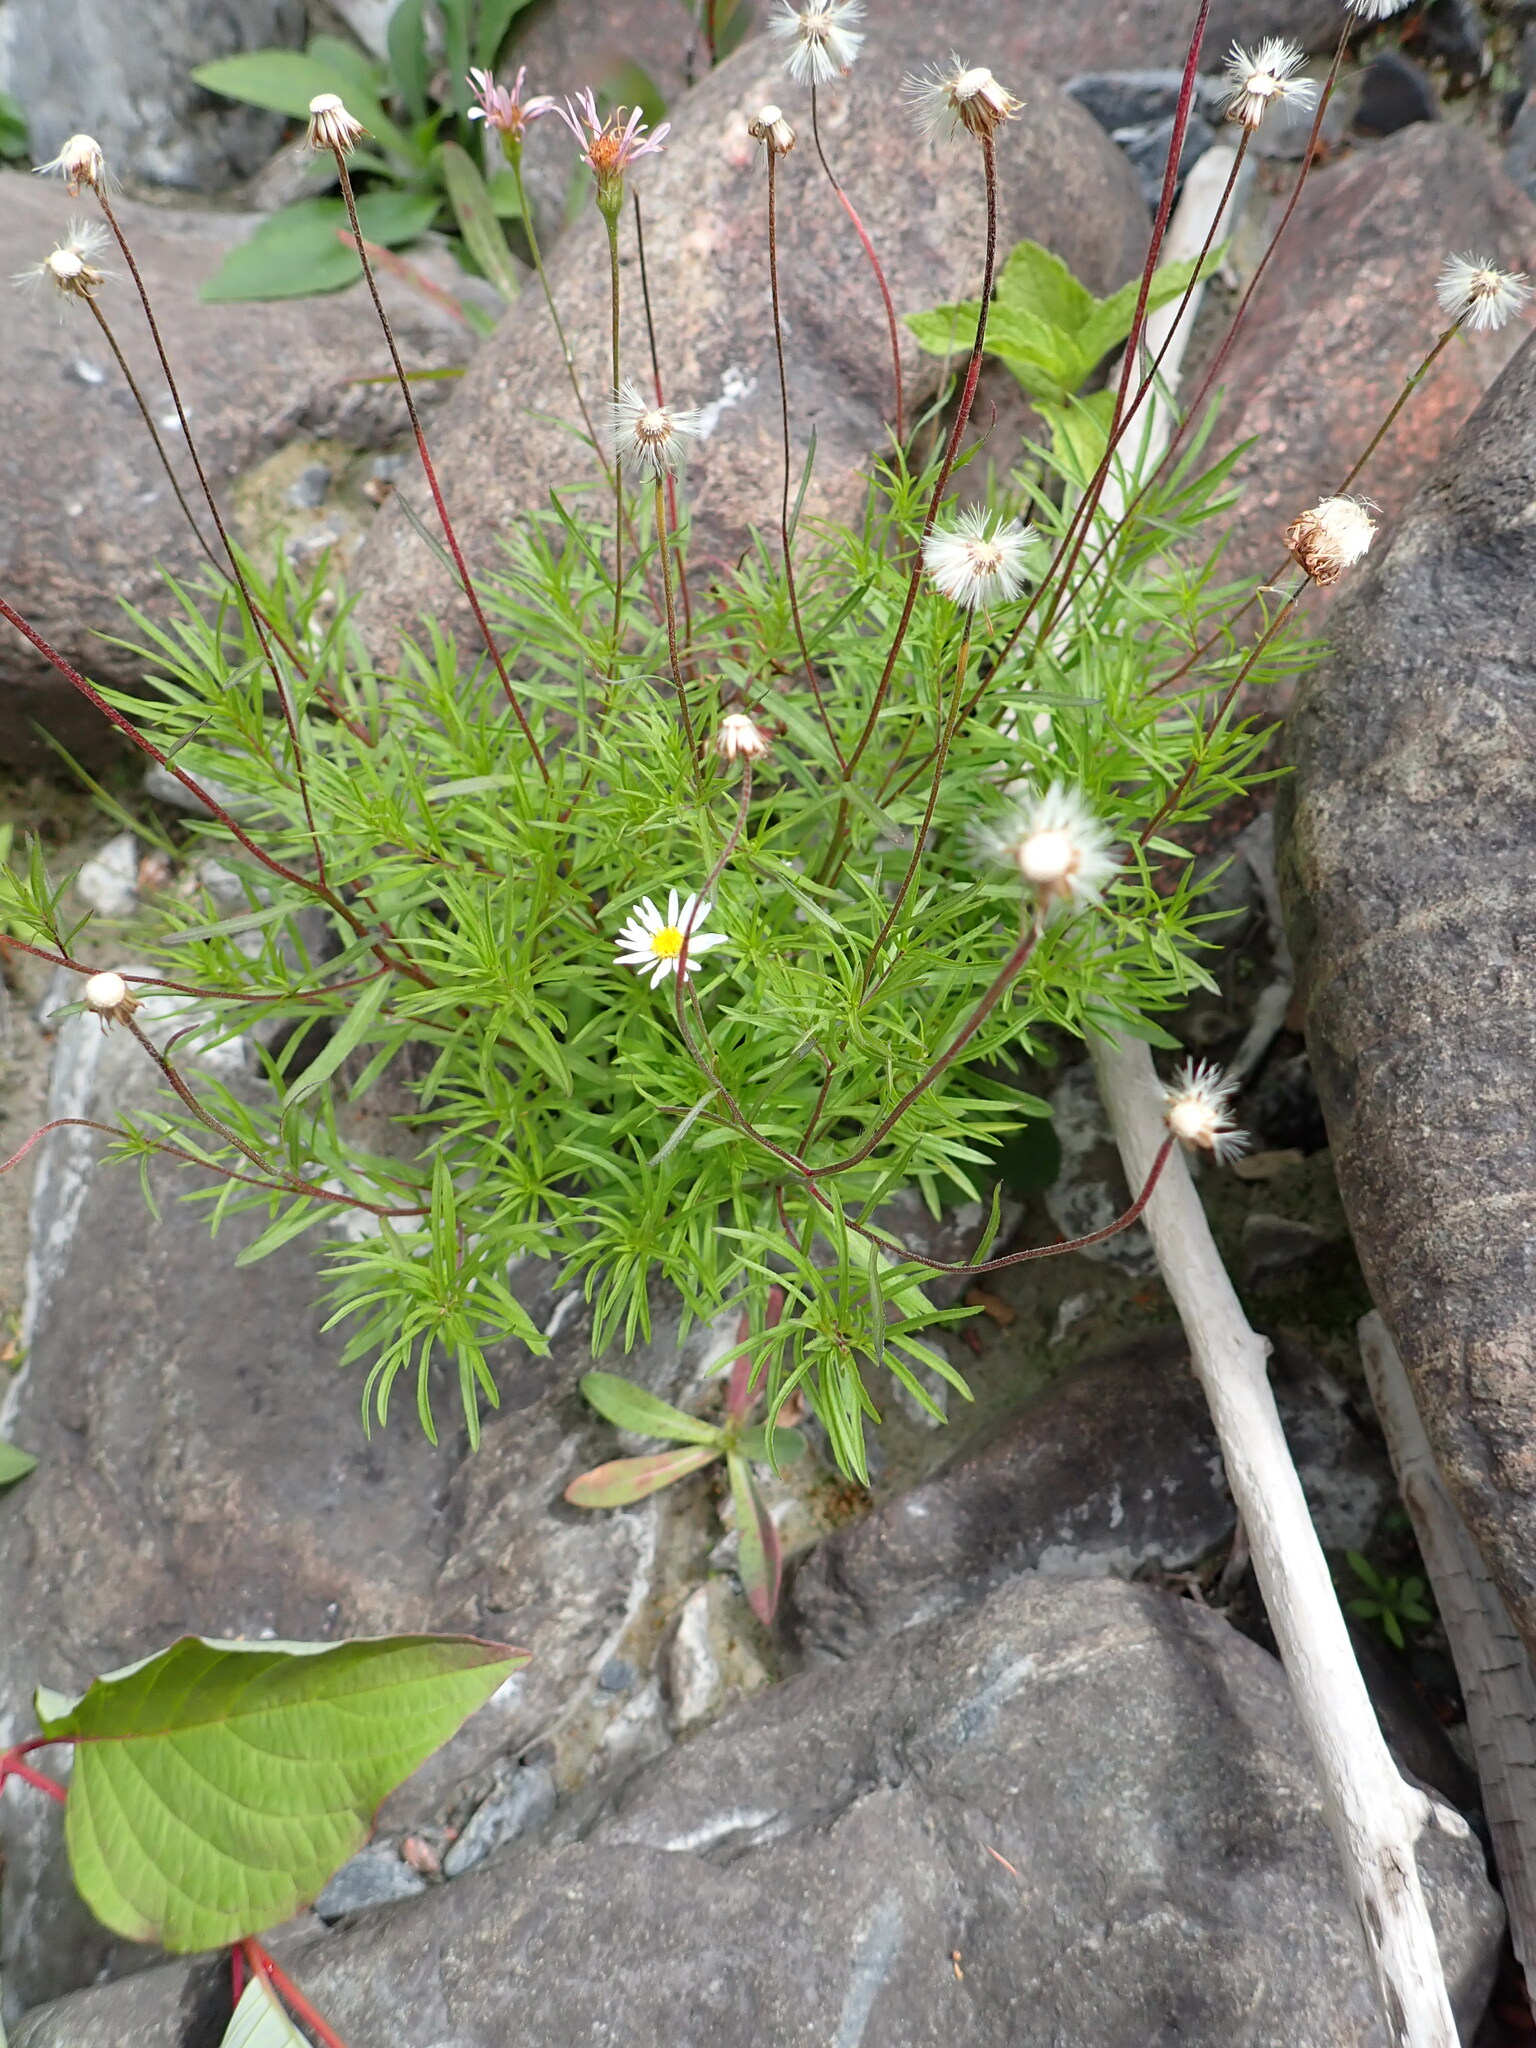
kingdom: Plantae
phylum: Tracheophyta
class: Magnoliopsida
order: Asterales
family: Asteraceae
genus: Erigeron
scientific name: Erigeron hyssopifolius
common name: Daisy fleabane
